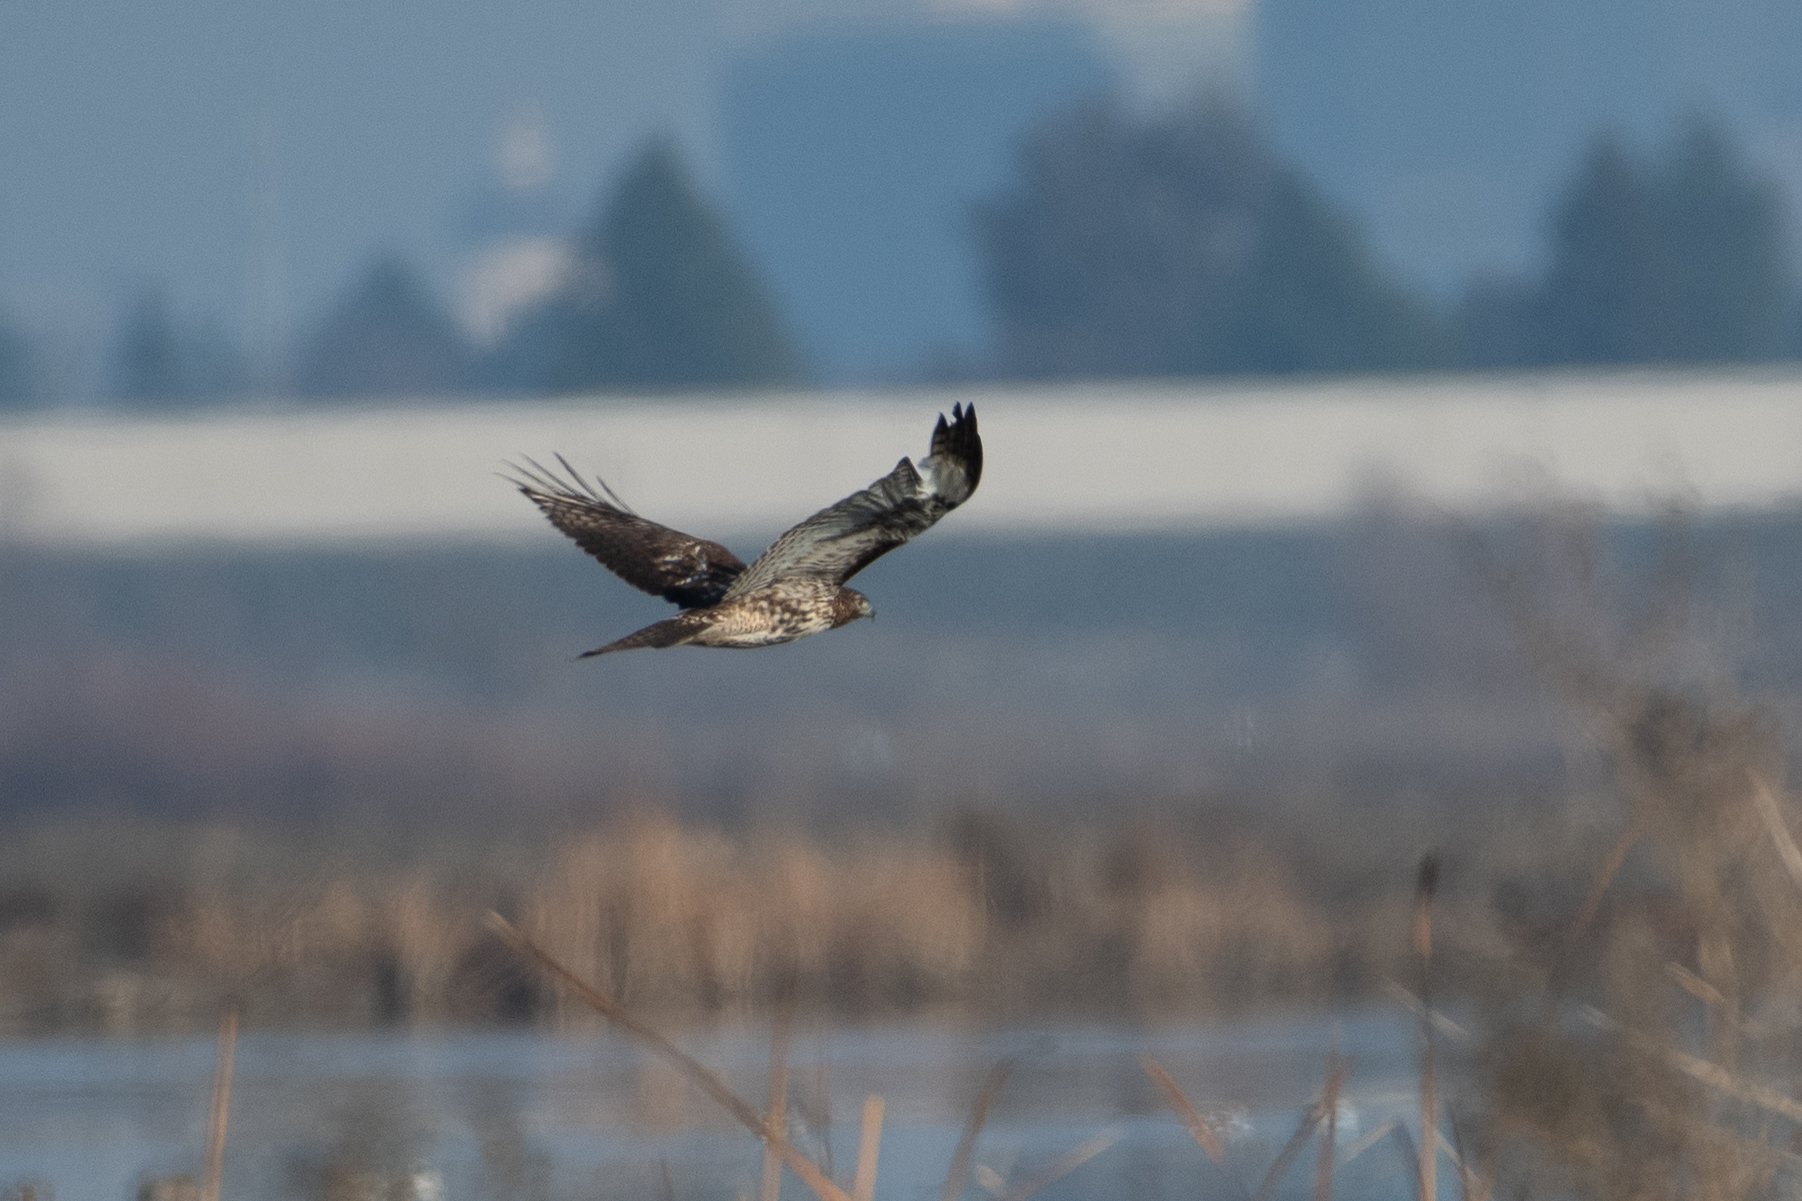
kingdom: Animalia
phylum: Chordata
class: Aves
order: Accipitriformes
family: Accipitridae
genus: Buteo
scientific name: Buteo jamaicensis
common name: Red-tailed hawk
